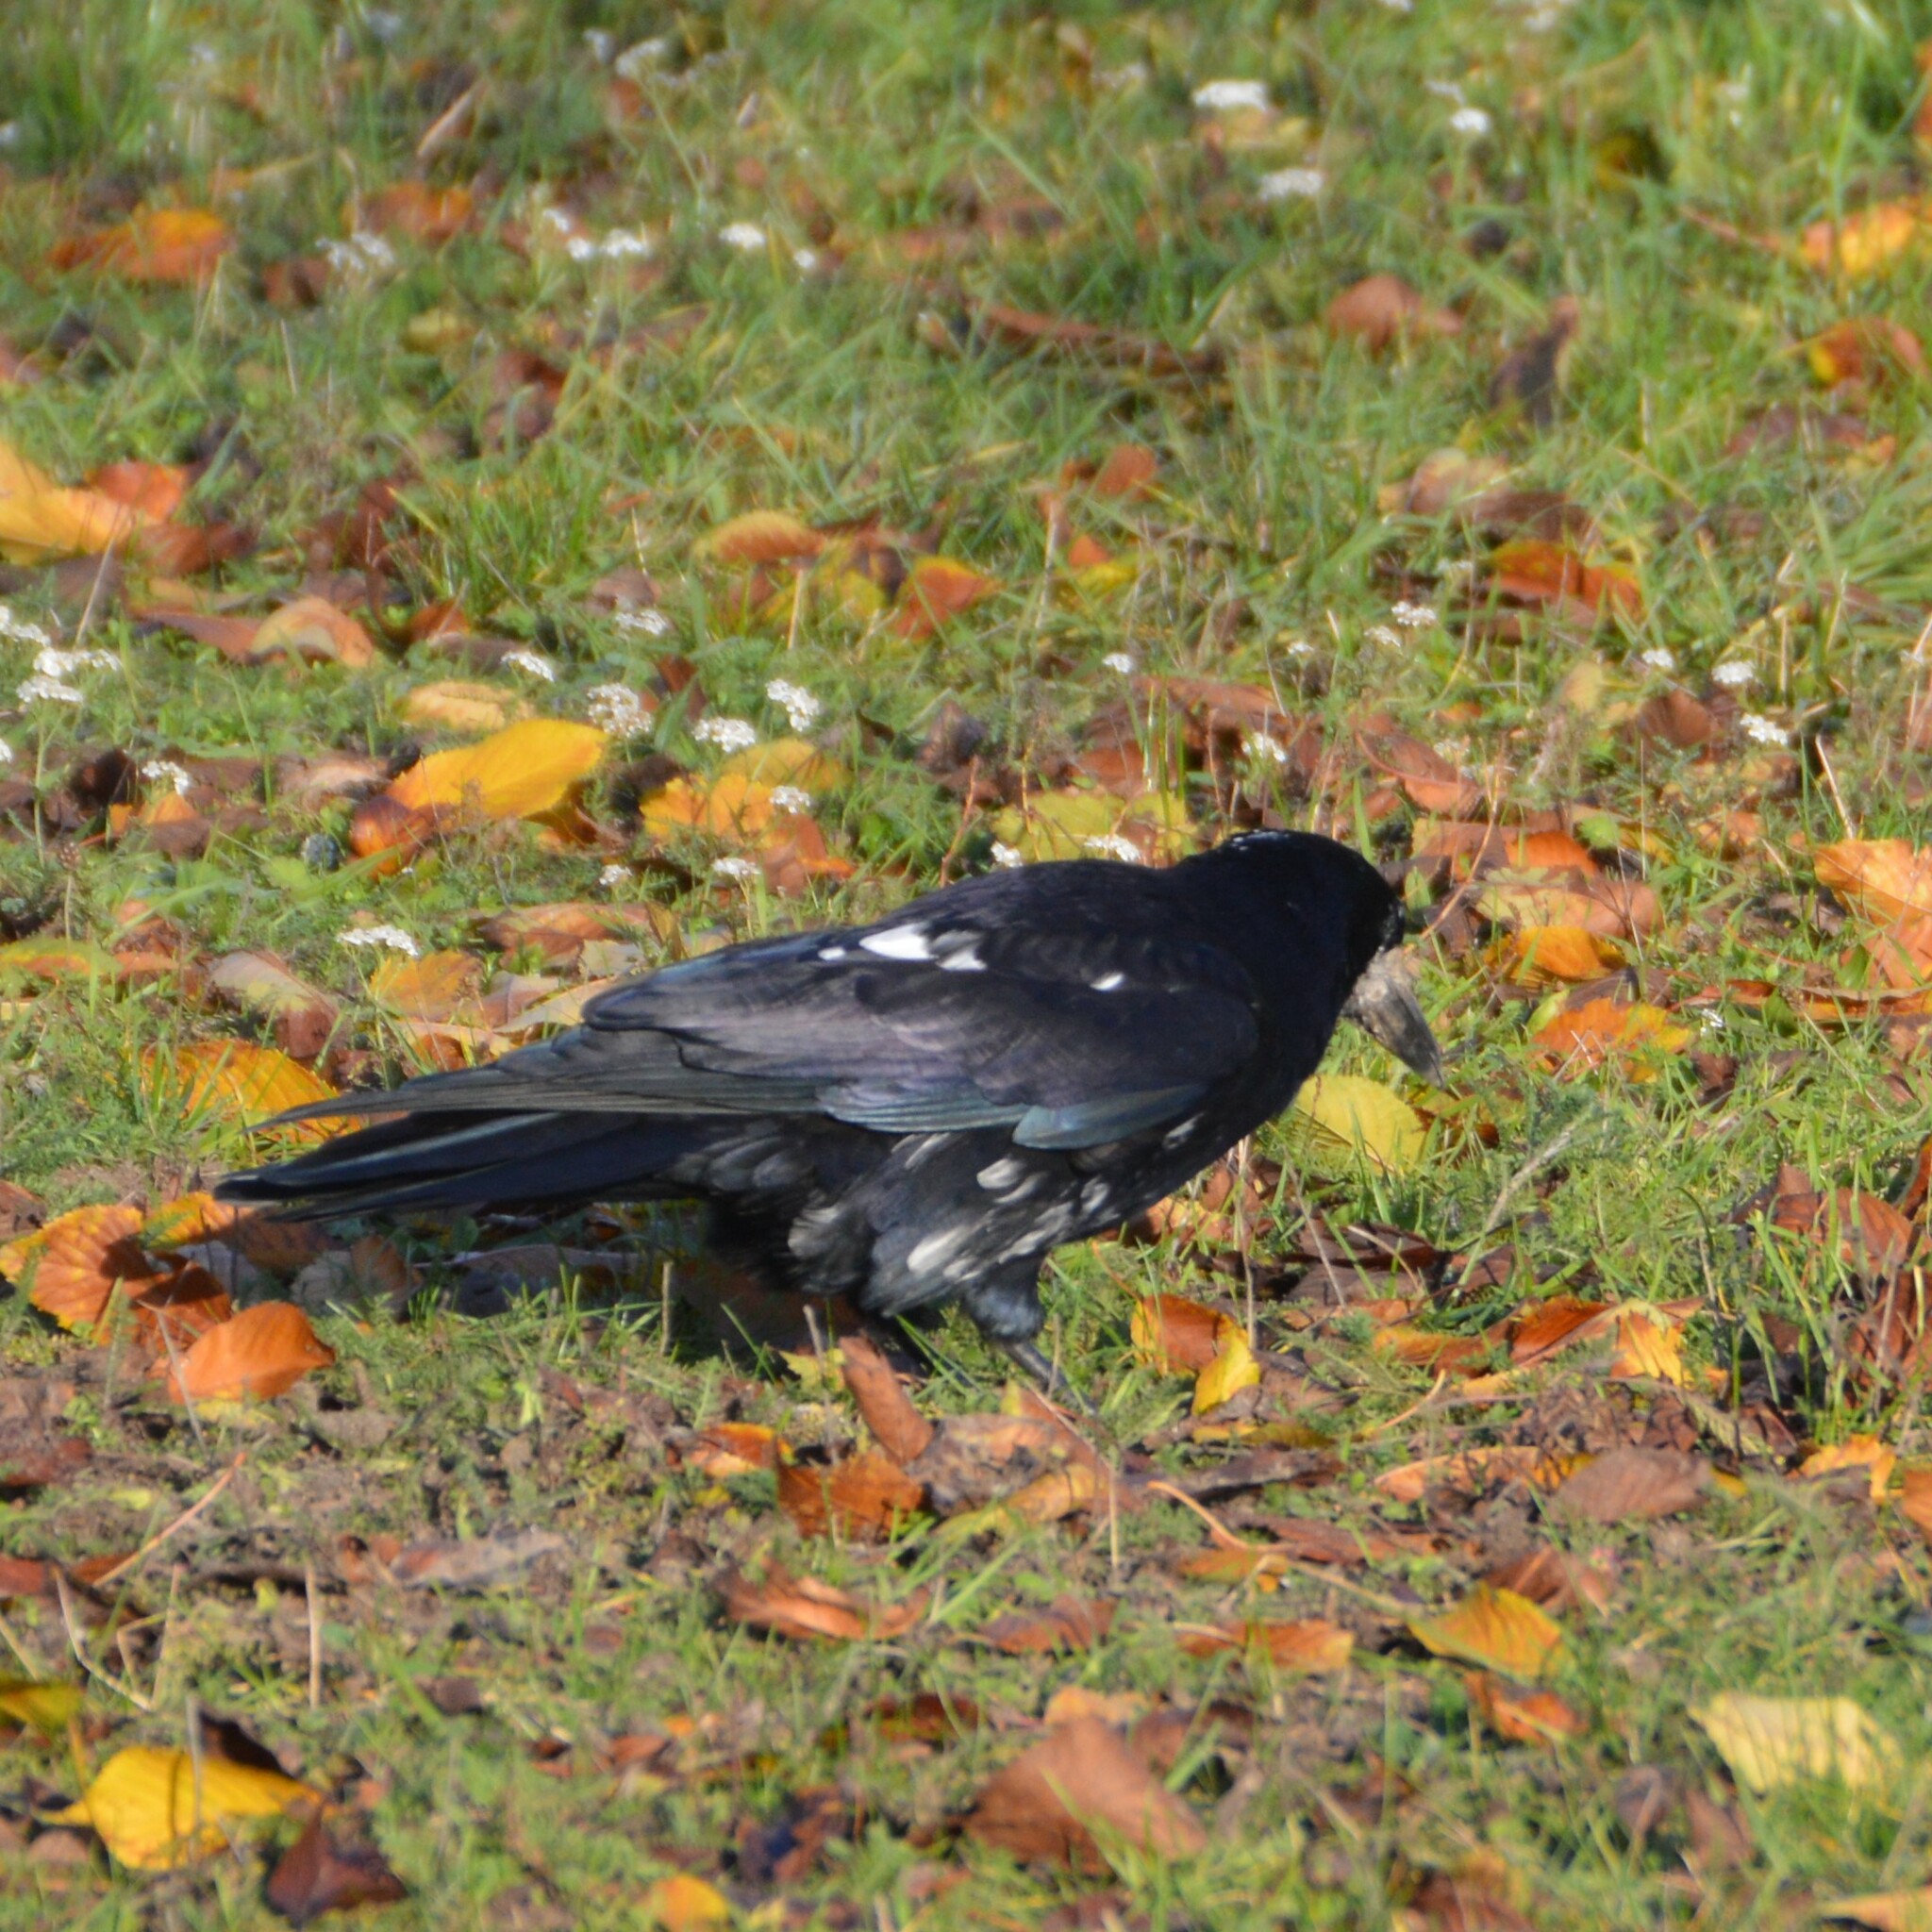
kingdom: Animalia
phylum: Chordata
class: Aves
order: Passeriformes
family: Corvidae
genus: Corvus
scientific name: Corvus frugilegus
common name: Rook
